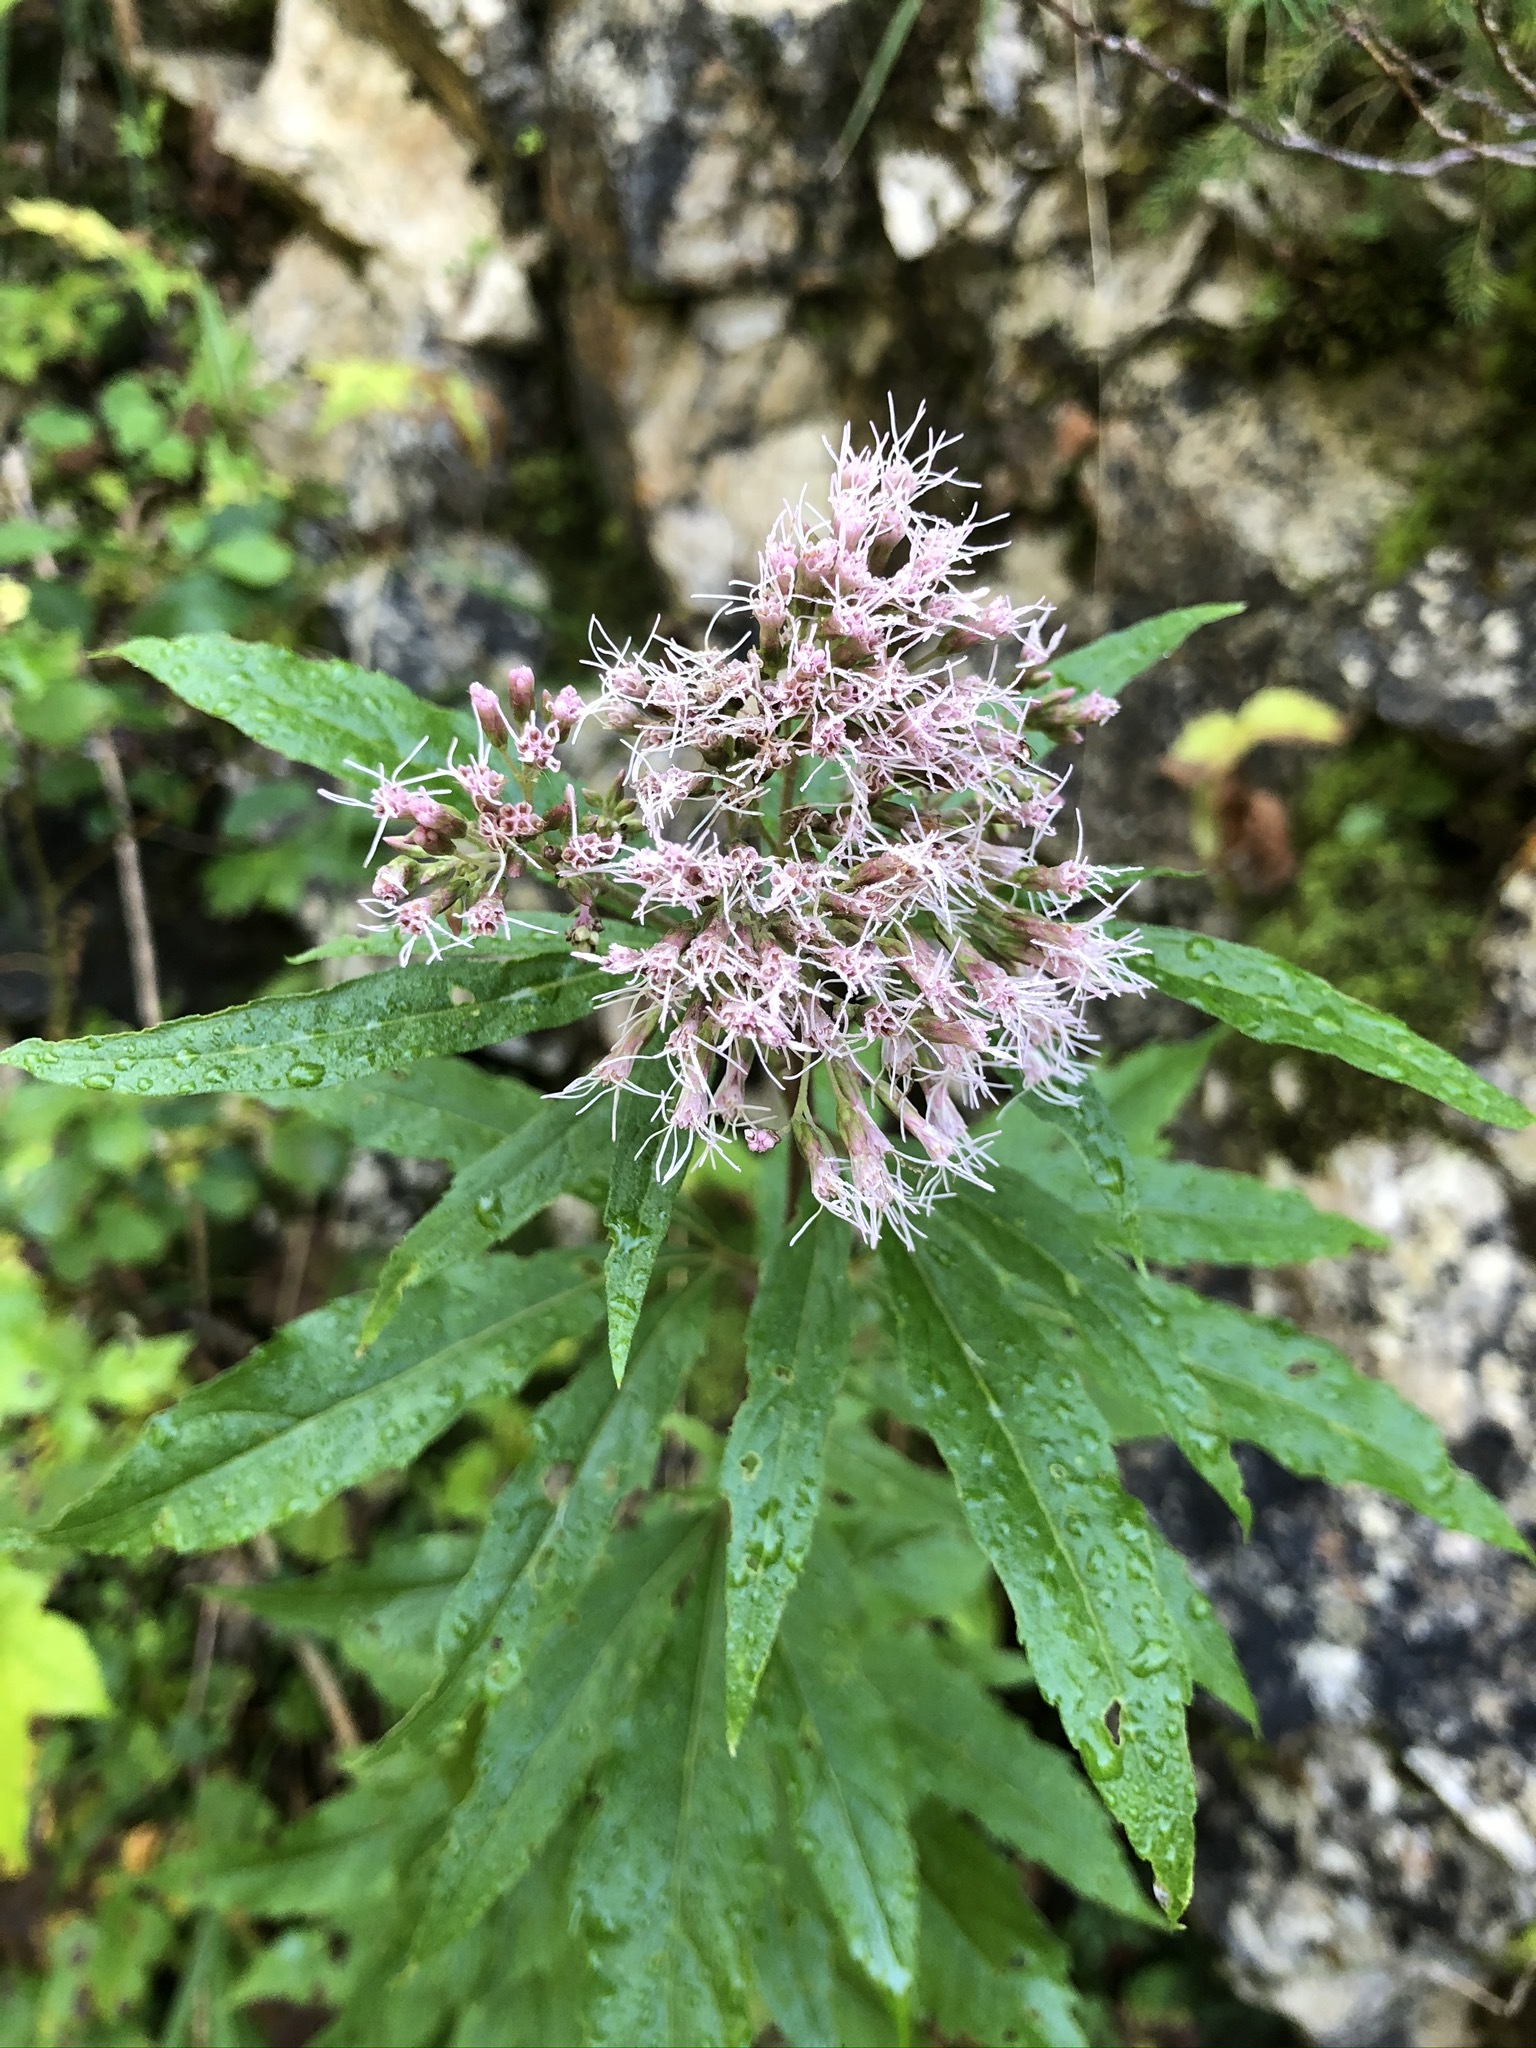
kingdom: Plantae
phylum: Tracheophyta
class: Magnoliopsida
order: Asterales
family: Asteraceae
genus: Eupatorium
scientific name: Eupatorium cannabinum
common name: Hemp-agrimony
